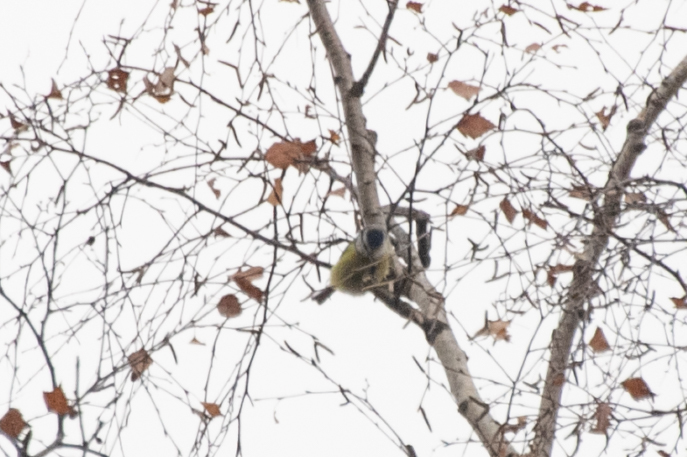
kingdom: Animalia
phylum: Chordata
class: Aves
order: Passeriformes
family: Paridae
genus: Cyanistes
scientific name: Cyanistes caeruleus
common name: Eurasian blue tit
